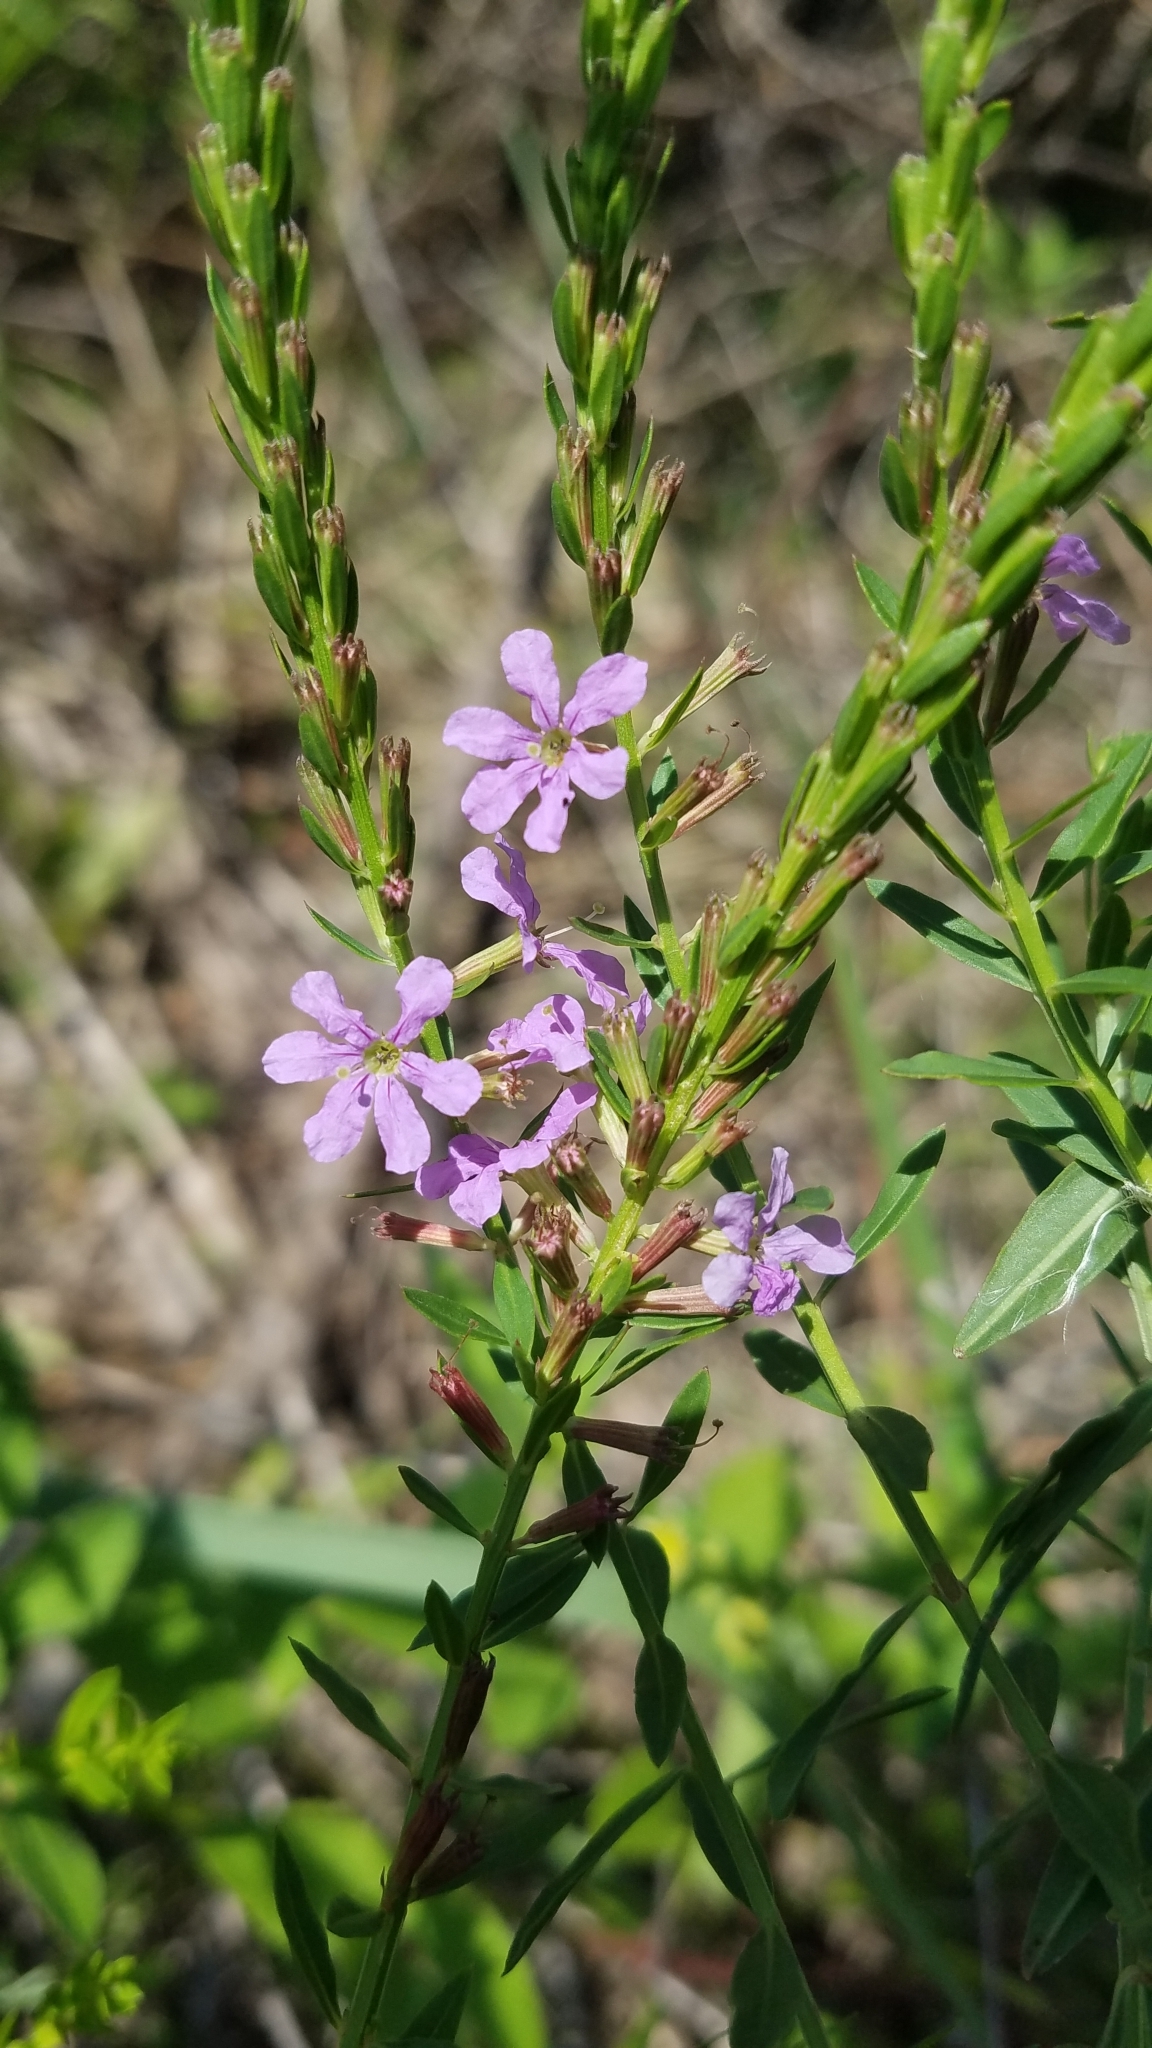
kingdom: Plantae
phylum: Tracheophyta
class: Magnoliopsida
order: Myrtales
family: Lythraceae
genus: Lythrum
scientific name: Lythrum alatum
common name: Winged loosestrife
